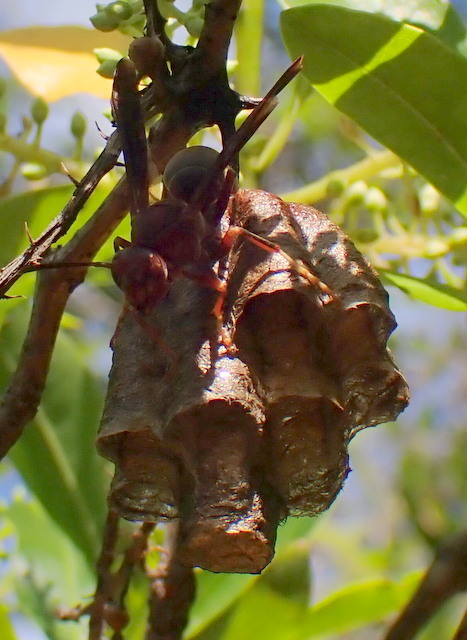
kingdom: Animalia
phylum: Arthropoda
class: Insecta
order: Hymenoptera
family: Eumenidae
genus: Polistes
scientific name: Polistes annularis
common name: Ringed paper wasp
